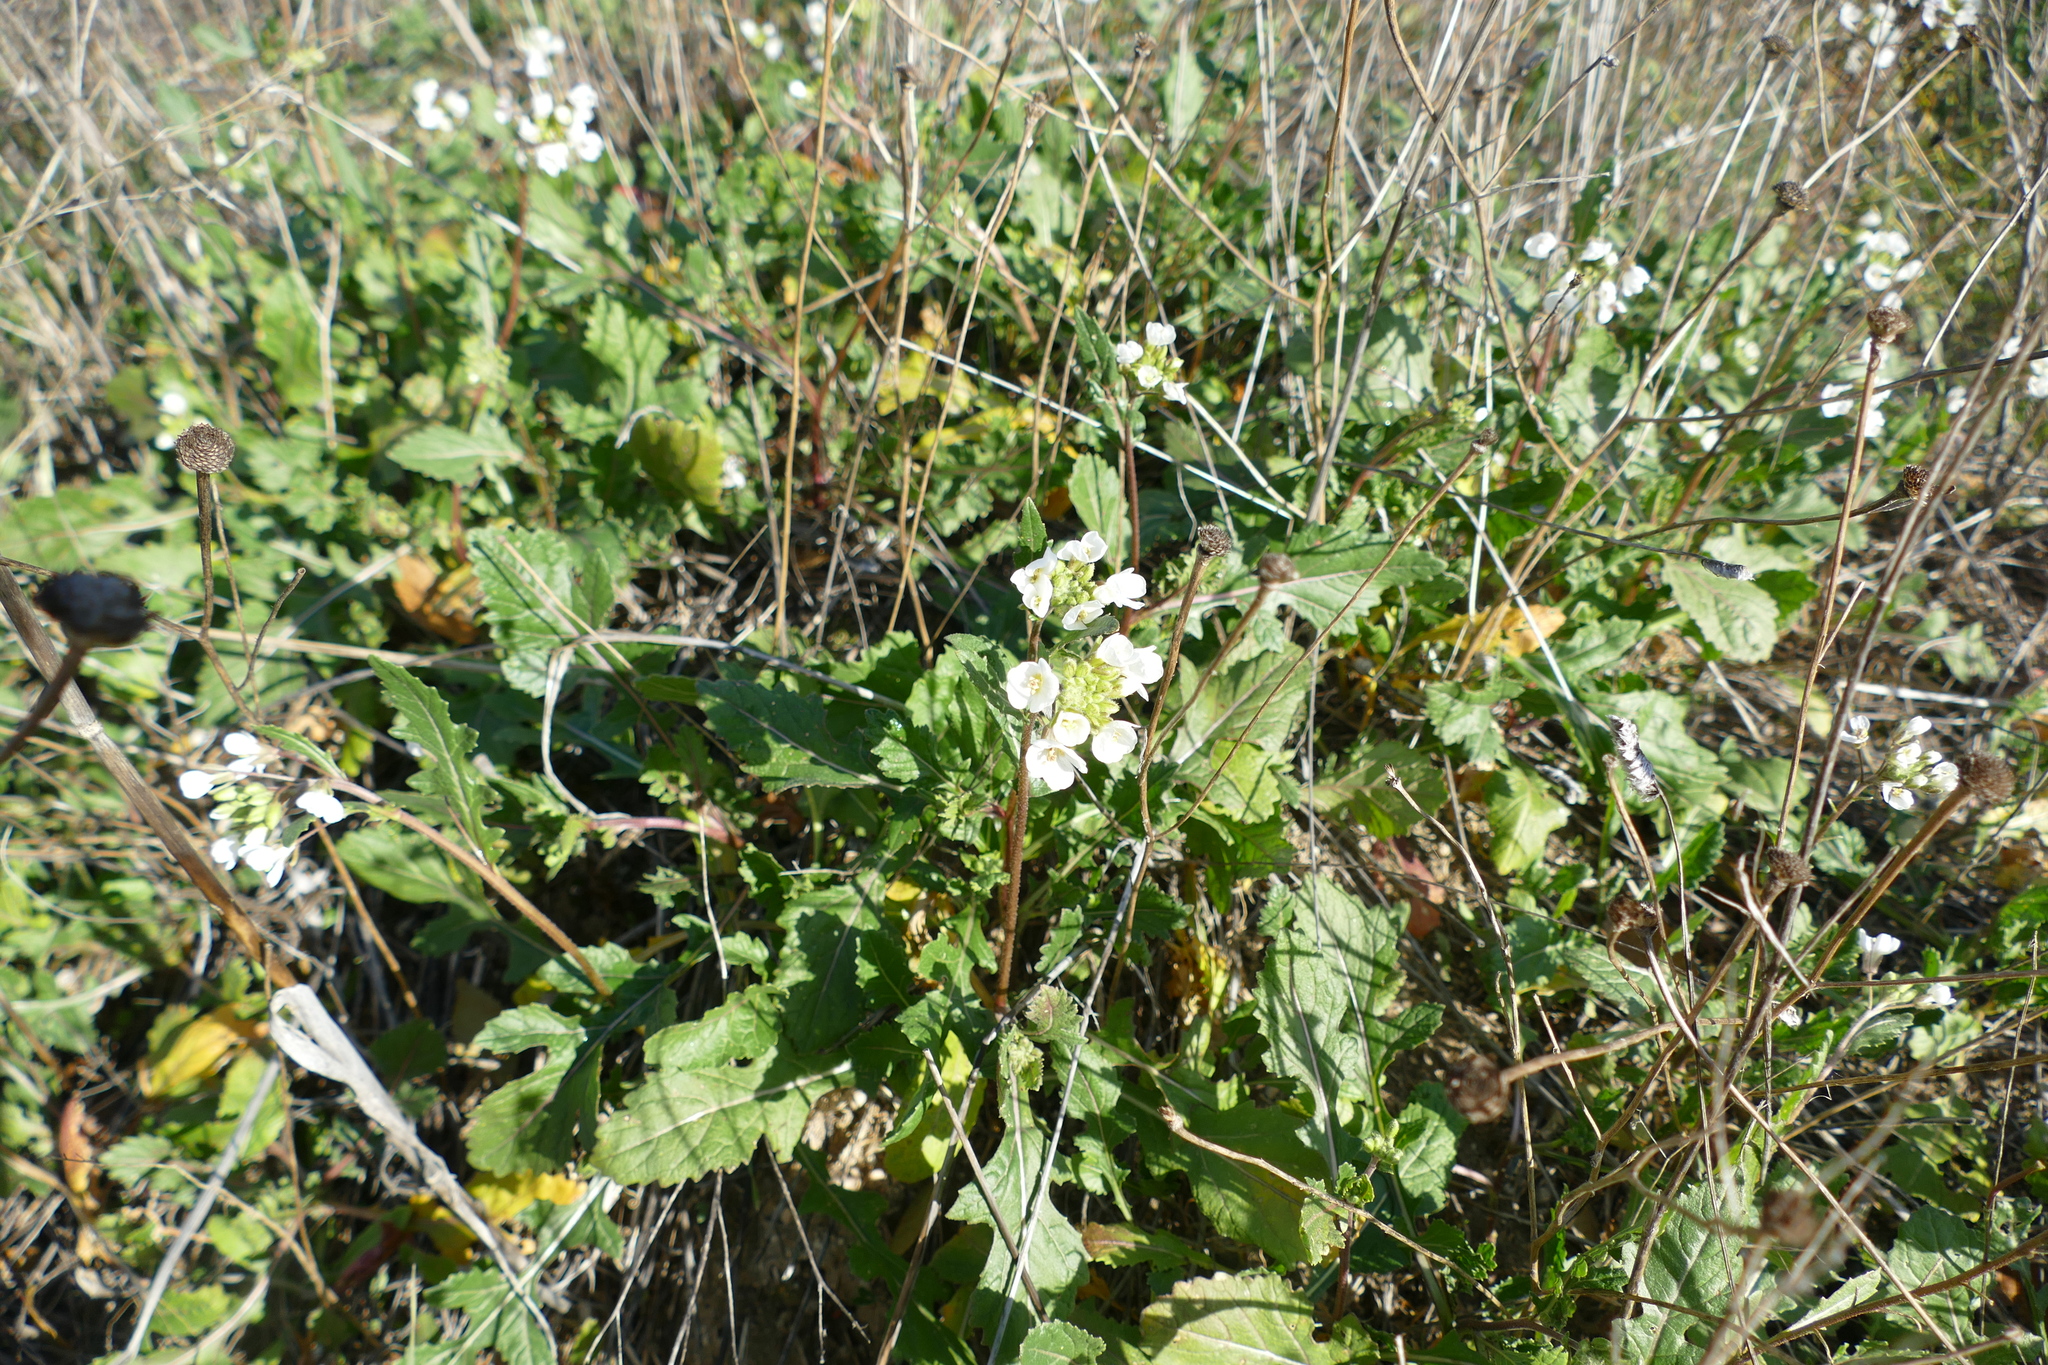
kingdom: Plantae
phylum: Tracheophyta
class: Magnoliopsida
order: Brassicales
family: Brassicaceae
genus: Diplotaxis
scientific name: Diplotaxis erucoides
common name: White rocket
